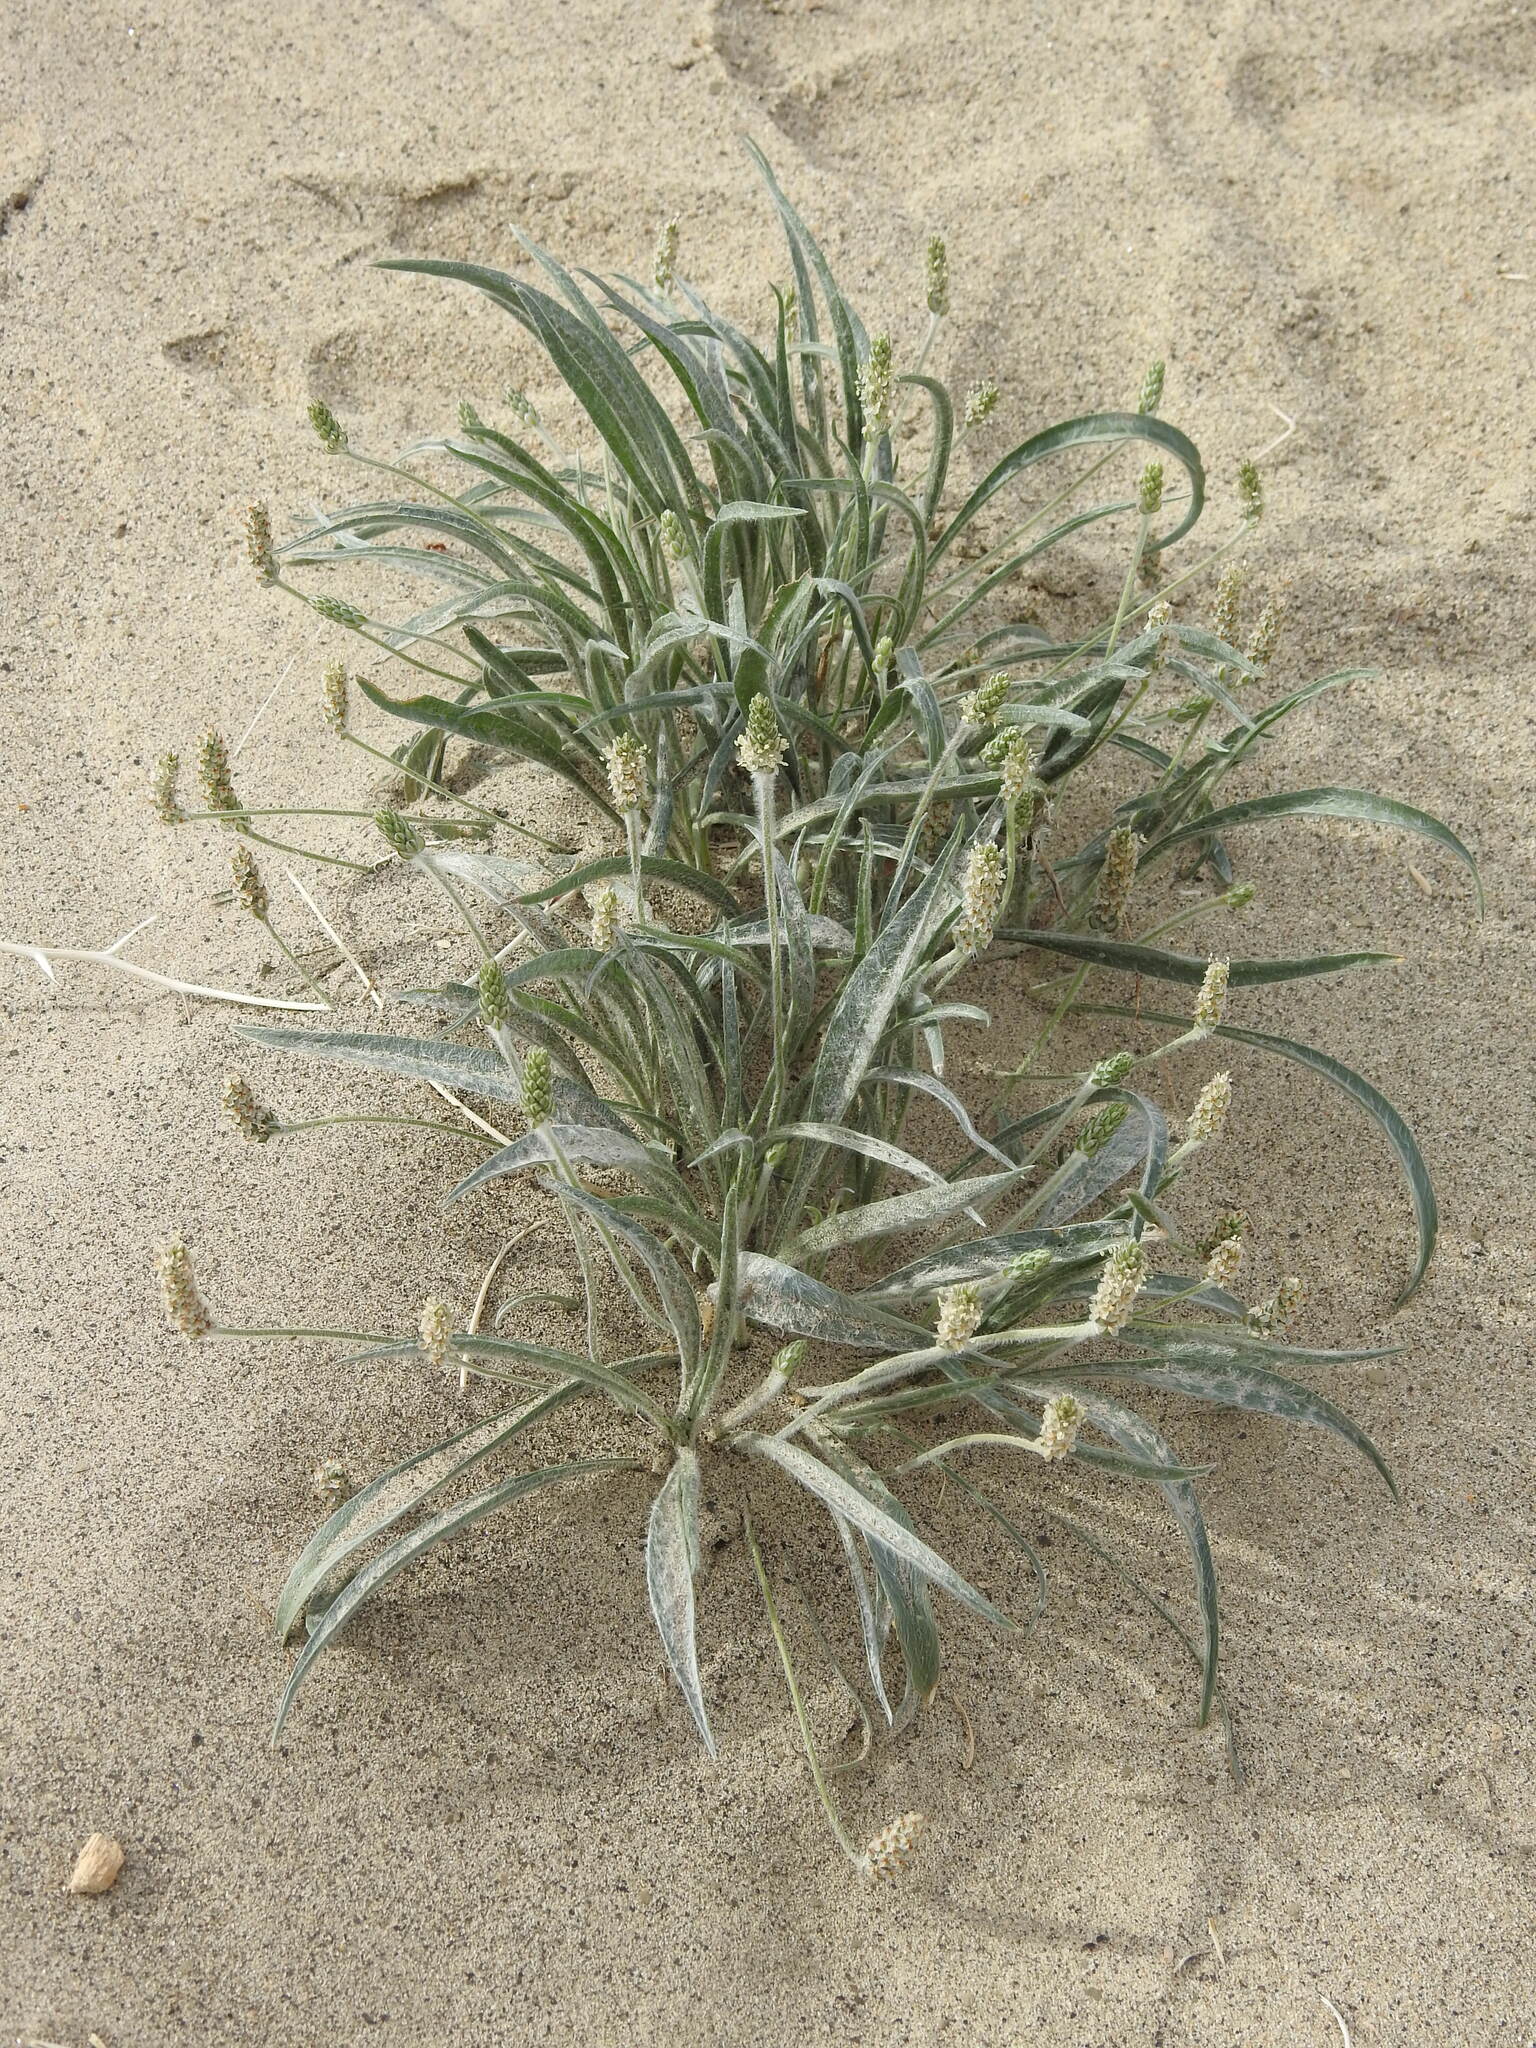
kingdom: Plantae
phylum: Tracheophyta
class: Magnoliopsida
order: Lamiales
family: Plantaginaceae
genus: Plantago
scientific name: Plantago ovata
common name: Blond plantain
